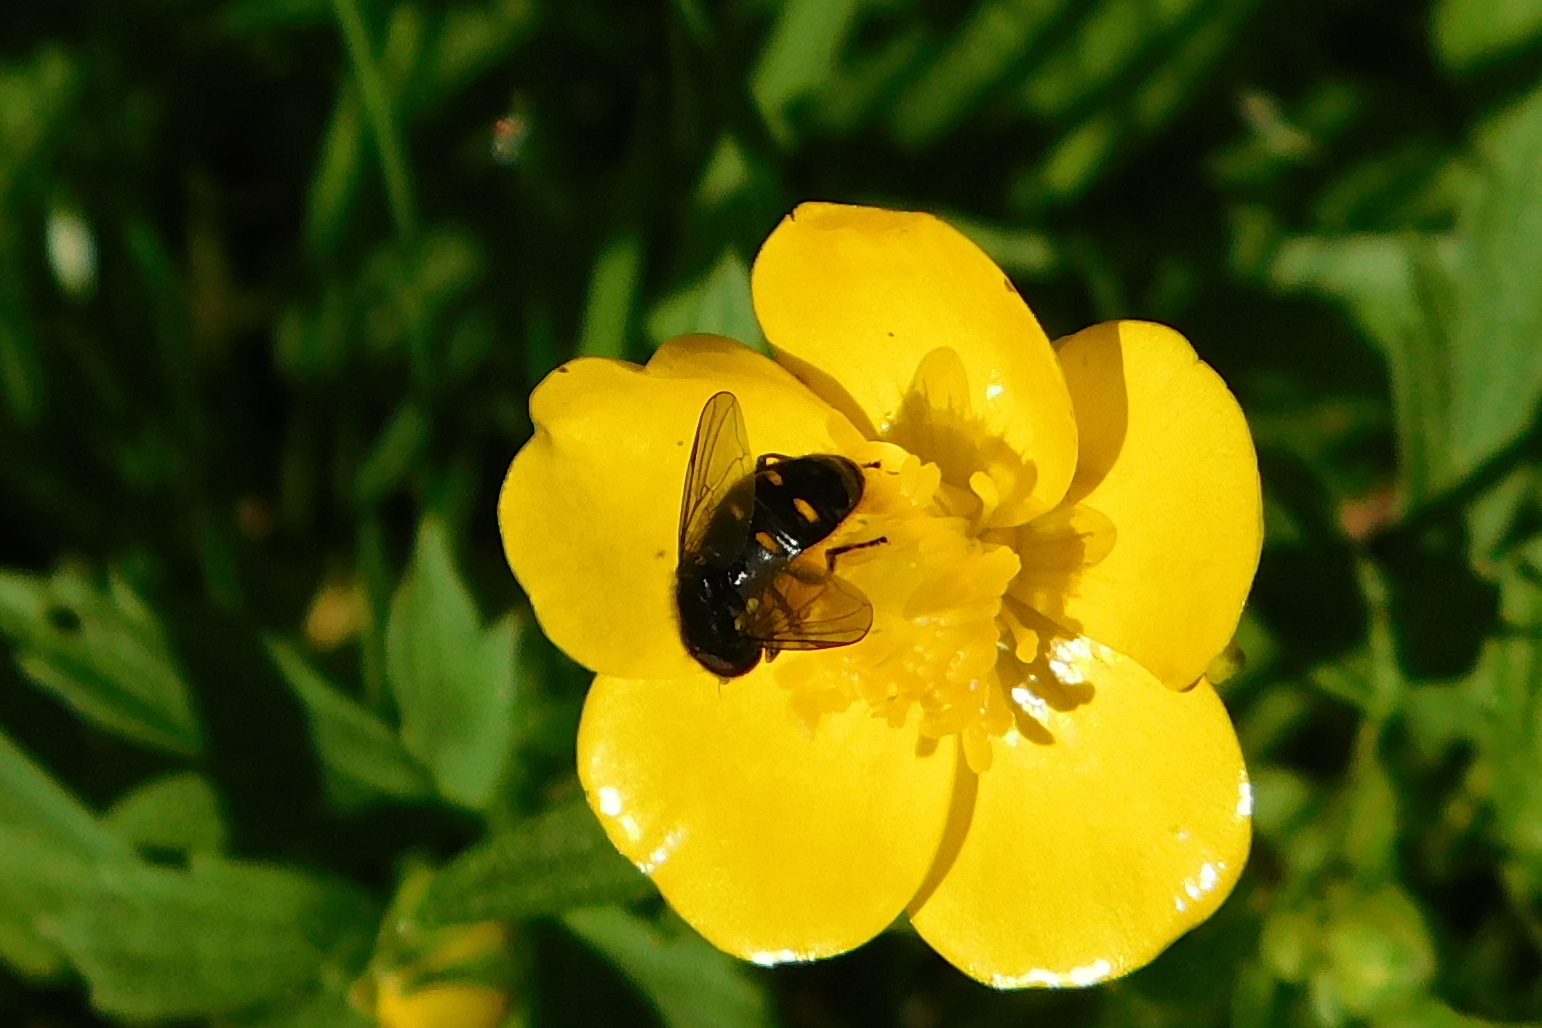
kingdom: Animalia
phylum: Arthropoda
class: Insecta
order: Diptera
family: Syrphidae
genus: Pipiza
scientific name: Pipiza quadrimaculata
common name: Four-spotted pipiza
